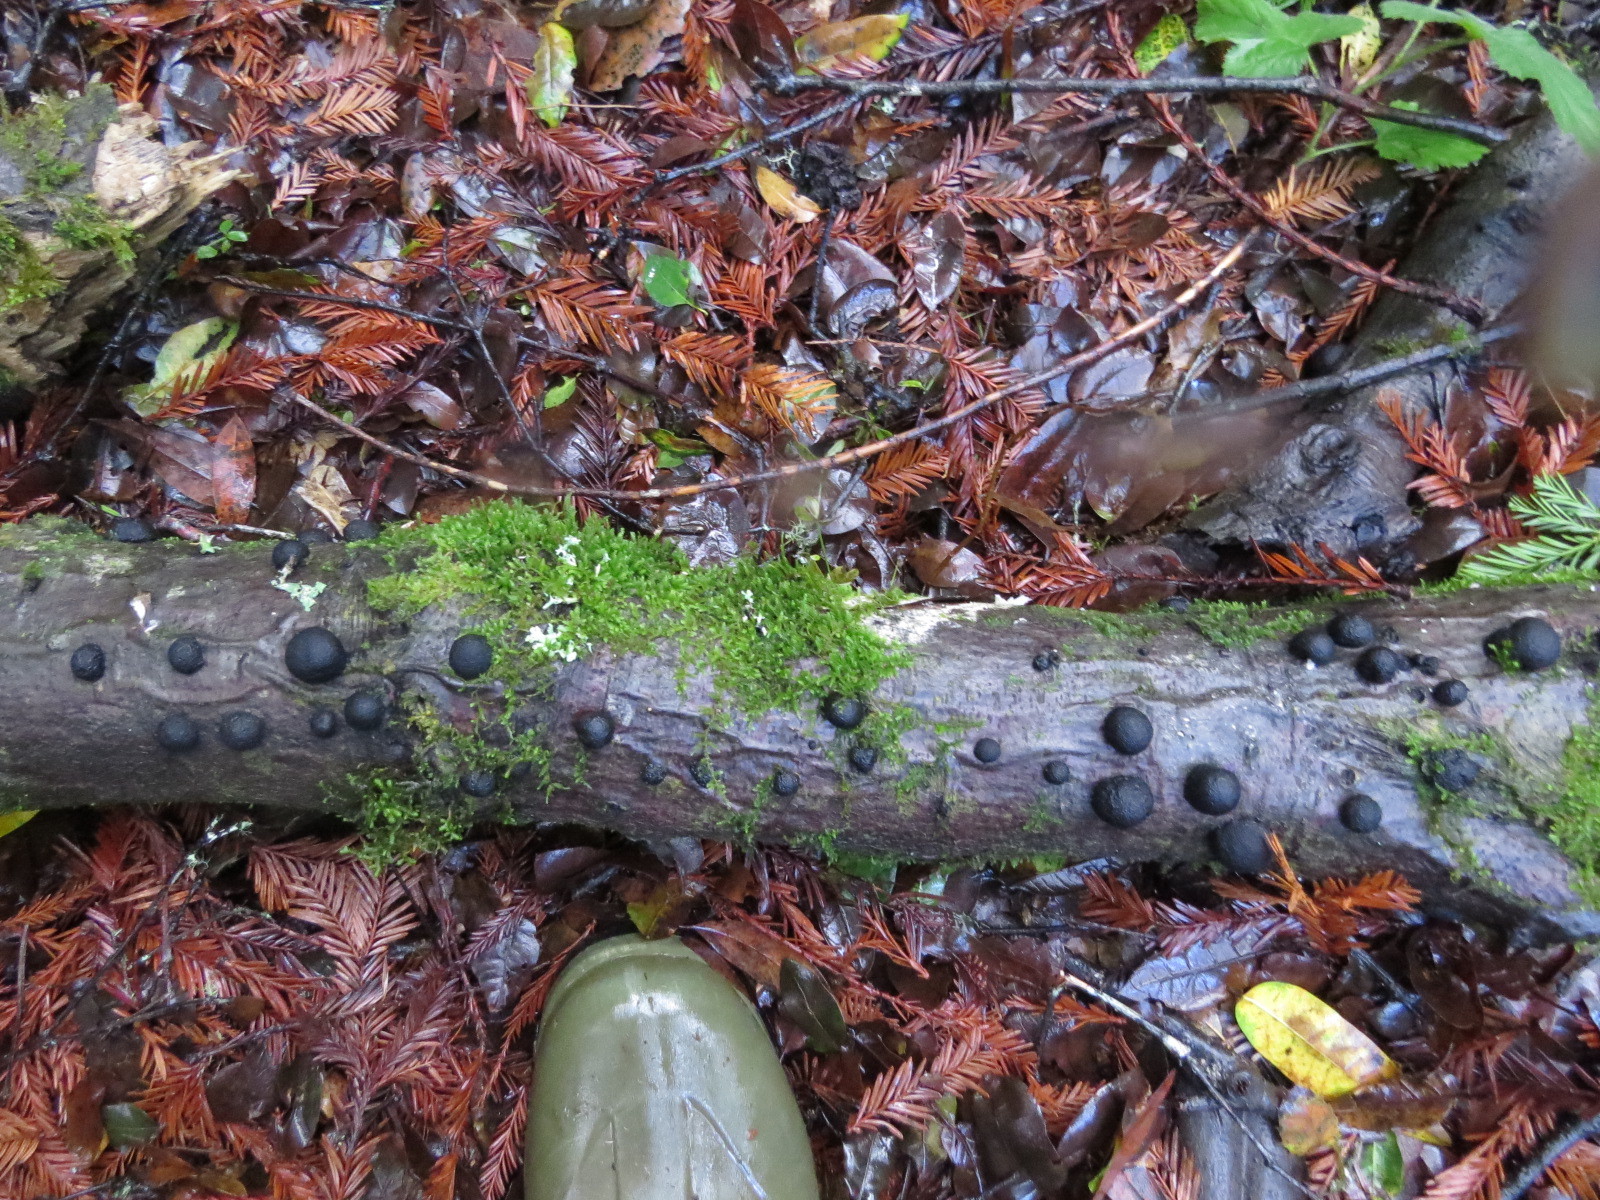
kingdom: Fungi
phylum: Ascomycota
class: Sordariomycetes
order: Xylariales
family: Hypoxylaceae
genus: Annulohypoxylon
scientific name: Annulohypoxylon thouarsianum
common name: Cramp balls
